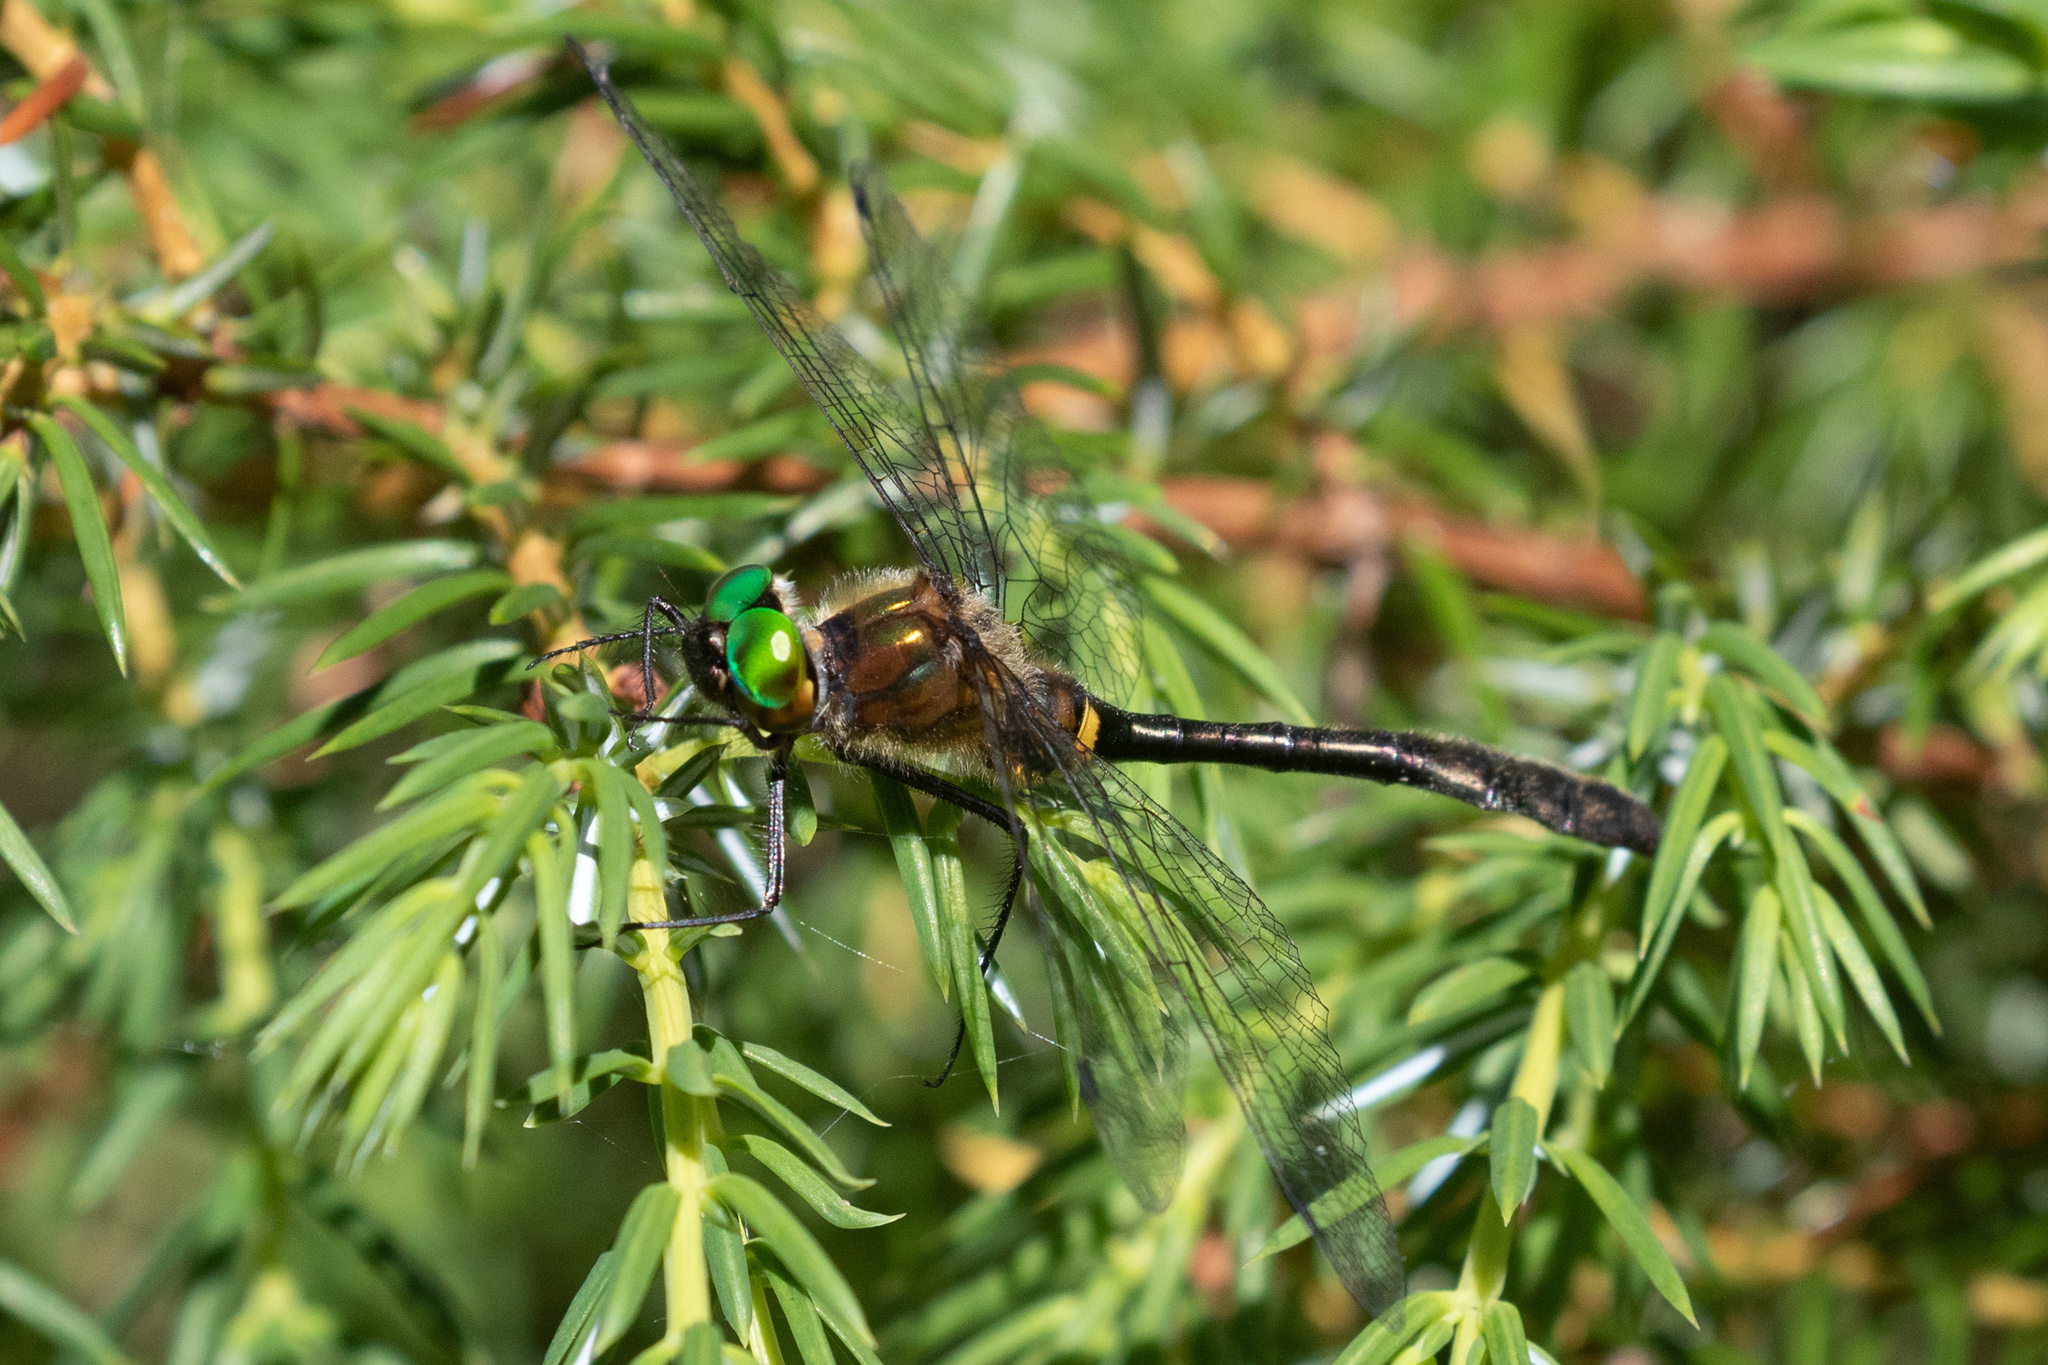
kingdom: Animalia
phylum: Arthropoda
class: Insecta
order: Odonata
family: Corduliidae
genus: Dorocordulia
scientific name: Dorocordulia libera
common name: Racket-tailed emerald
